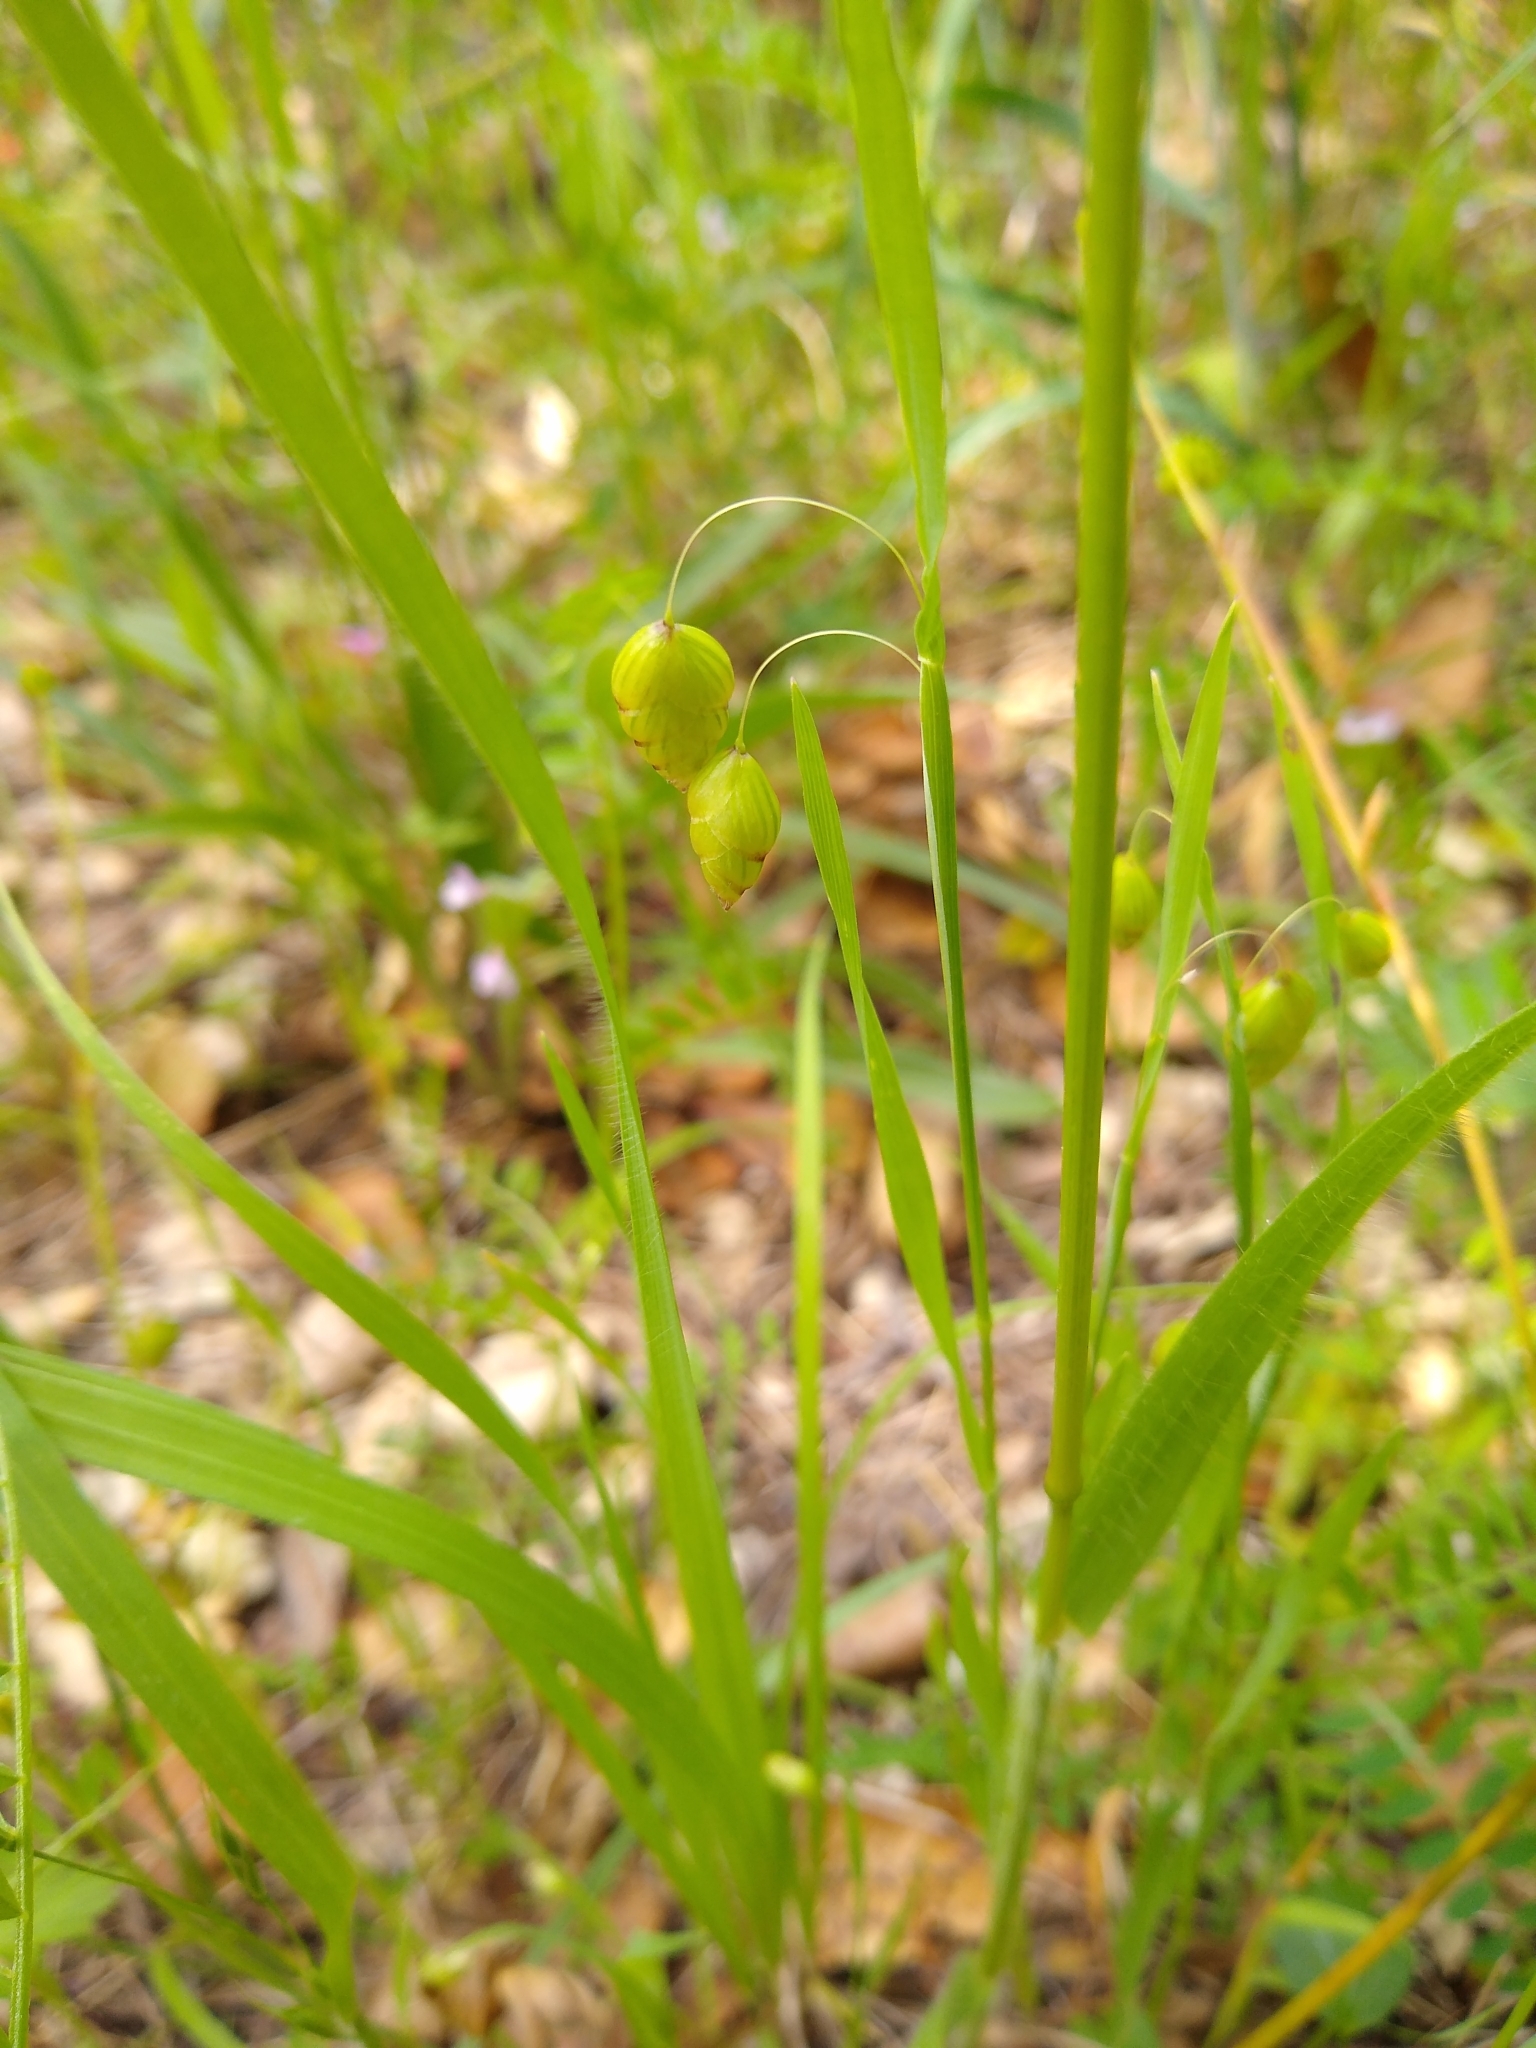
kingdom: Plantae
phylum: Tracheophyta
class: Liliopsida
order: Poales
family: Poaceae
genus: Briza
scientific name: Briza maxima
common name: Big quakinggrass
